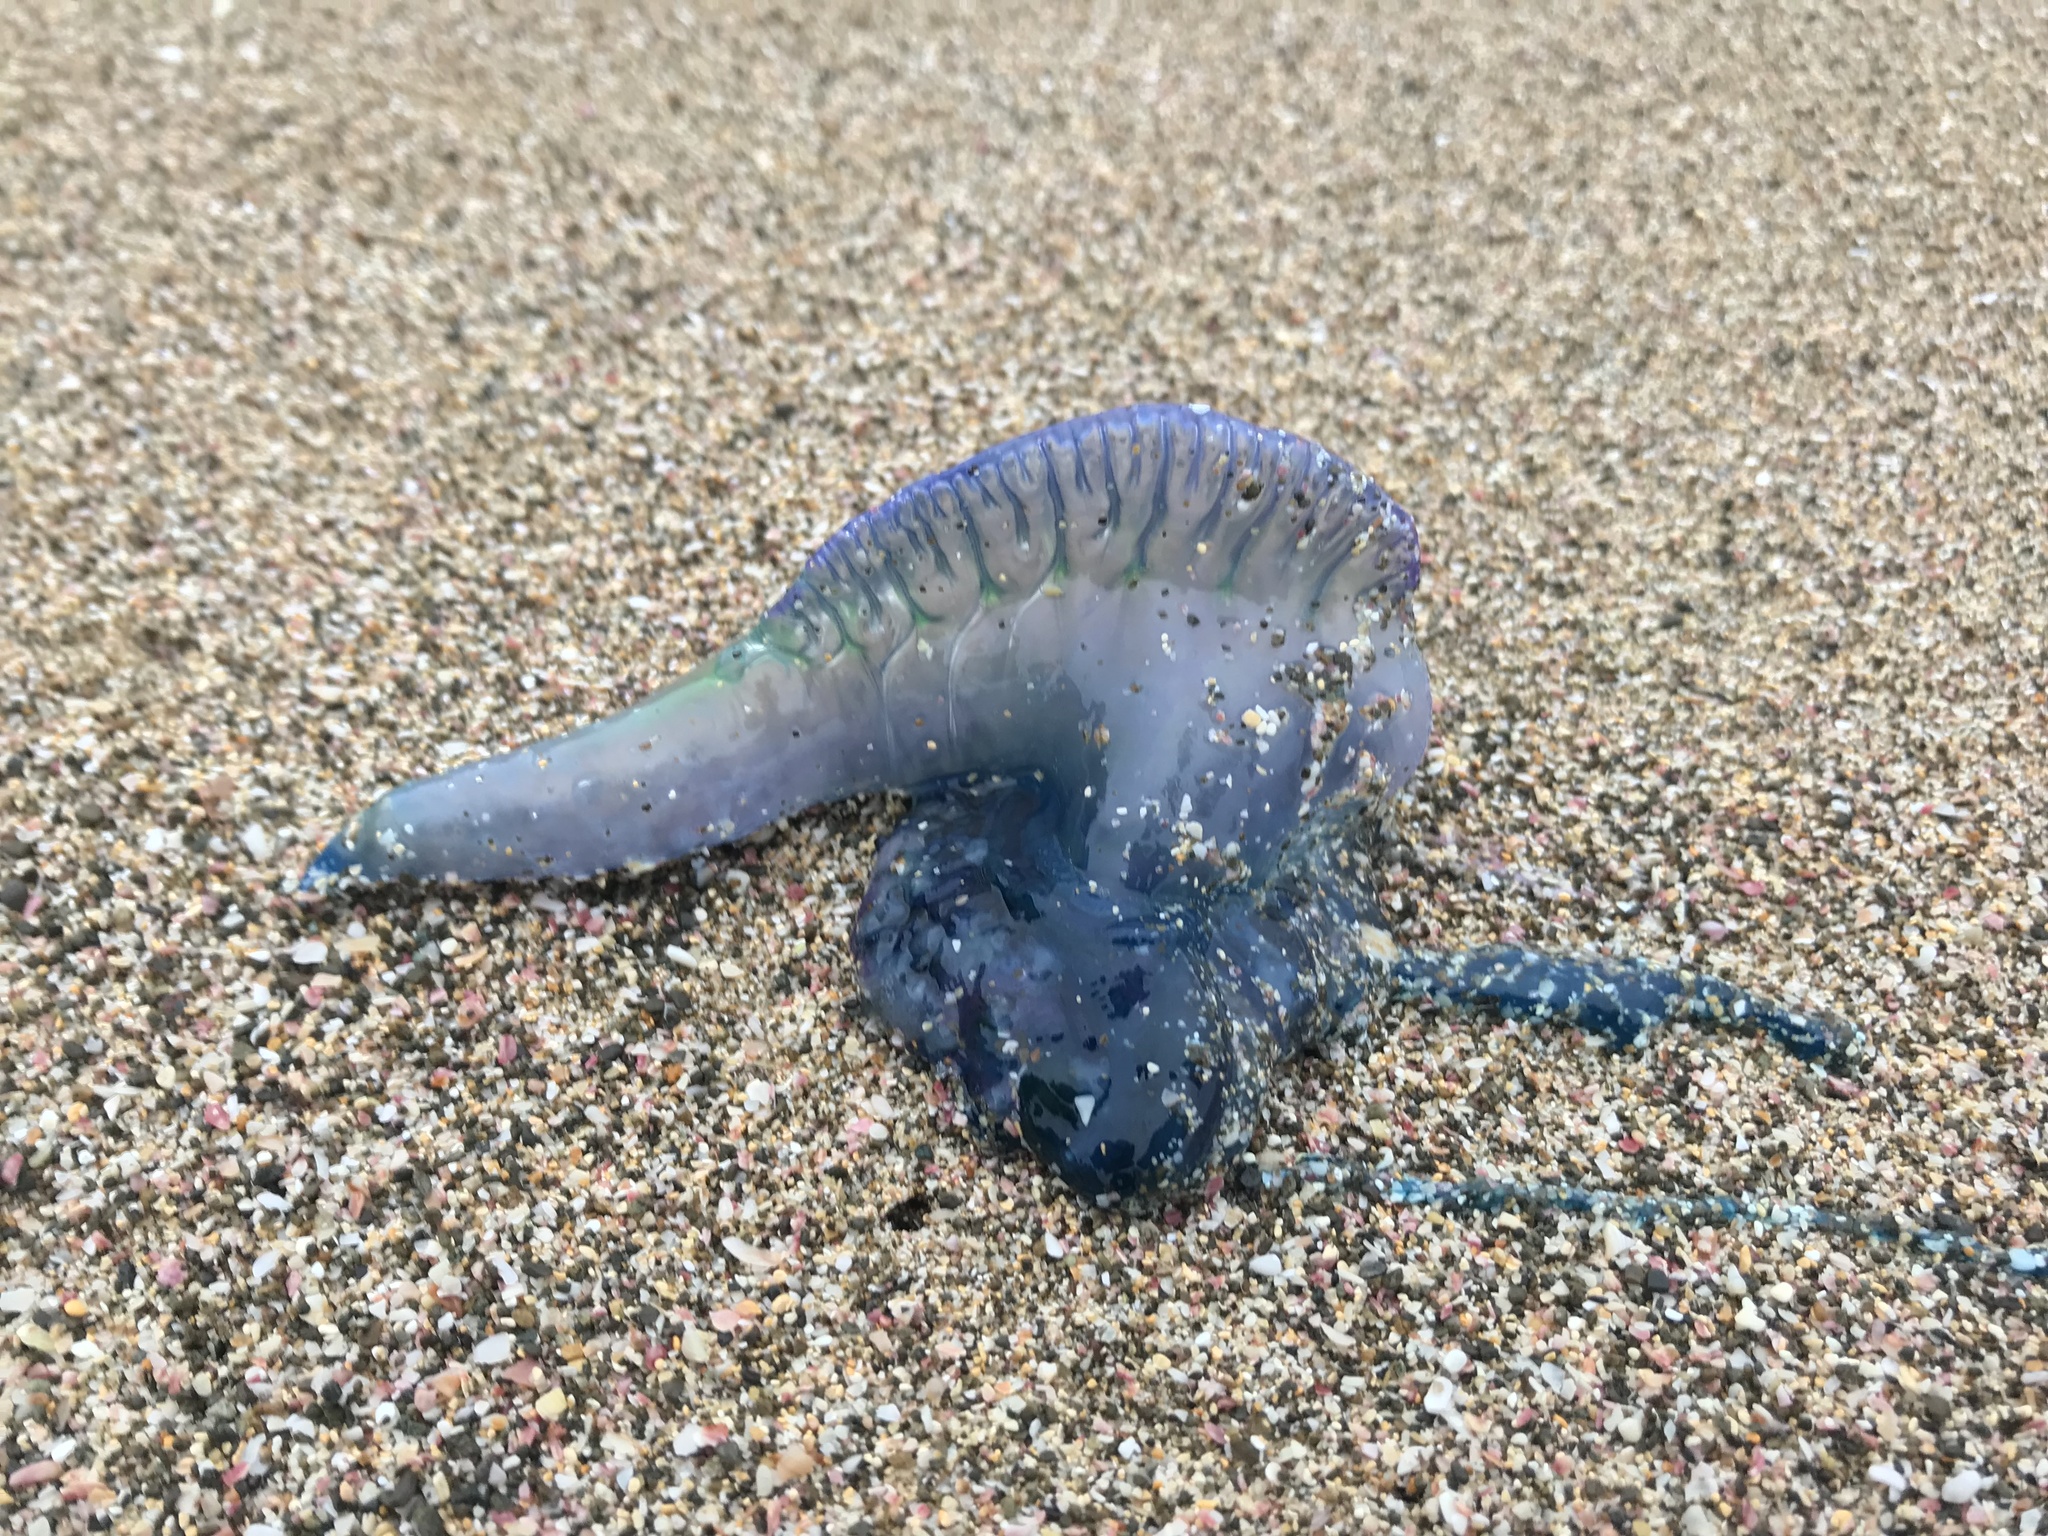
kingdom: Animalia
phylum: Cnidaria
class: Hydrozoa
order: Siphonophorae
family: Physaliidae
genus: Physalia
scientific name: Physalia physalis
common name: Portuguese man-of-war
